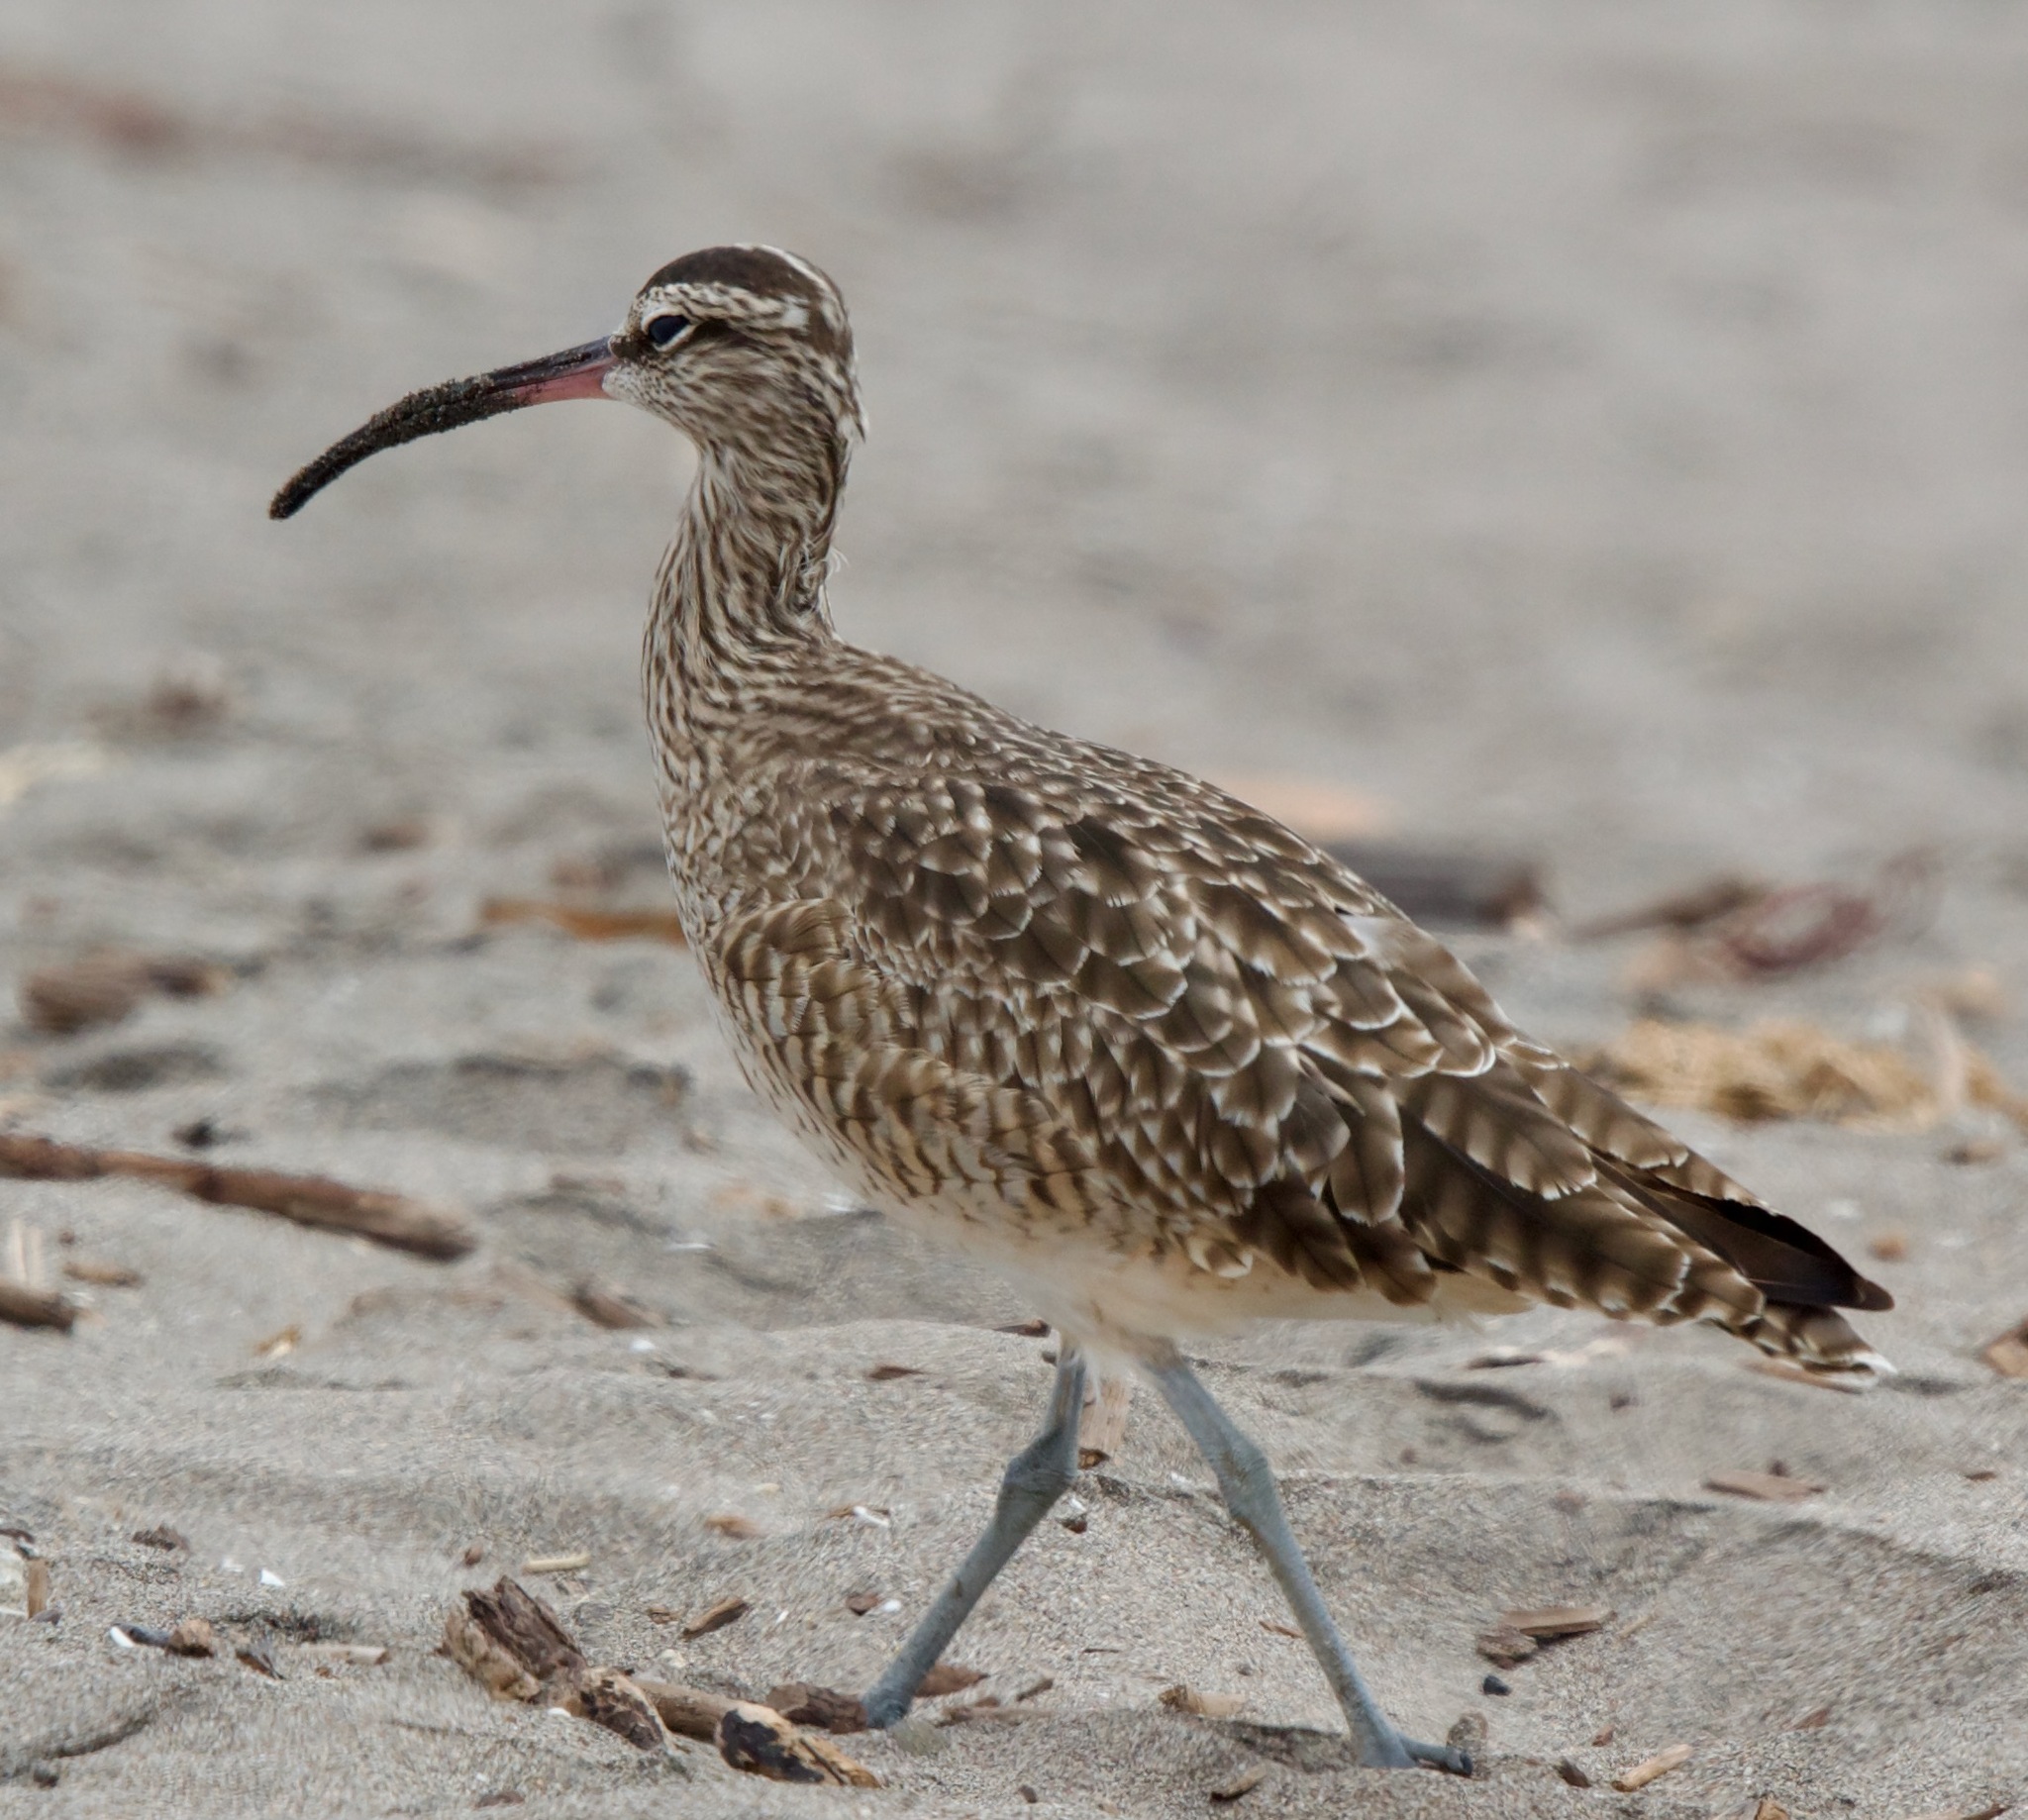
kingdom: Animalia
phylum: Chordata
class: Aves
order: Charadriiformes
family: Scolopacidae
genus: Numenius
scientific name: Numenius phaeopus
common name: Whimbrel
